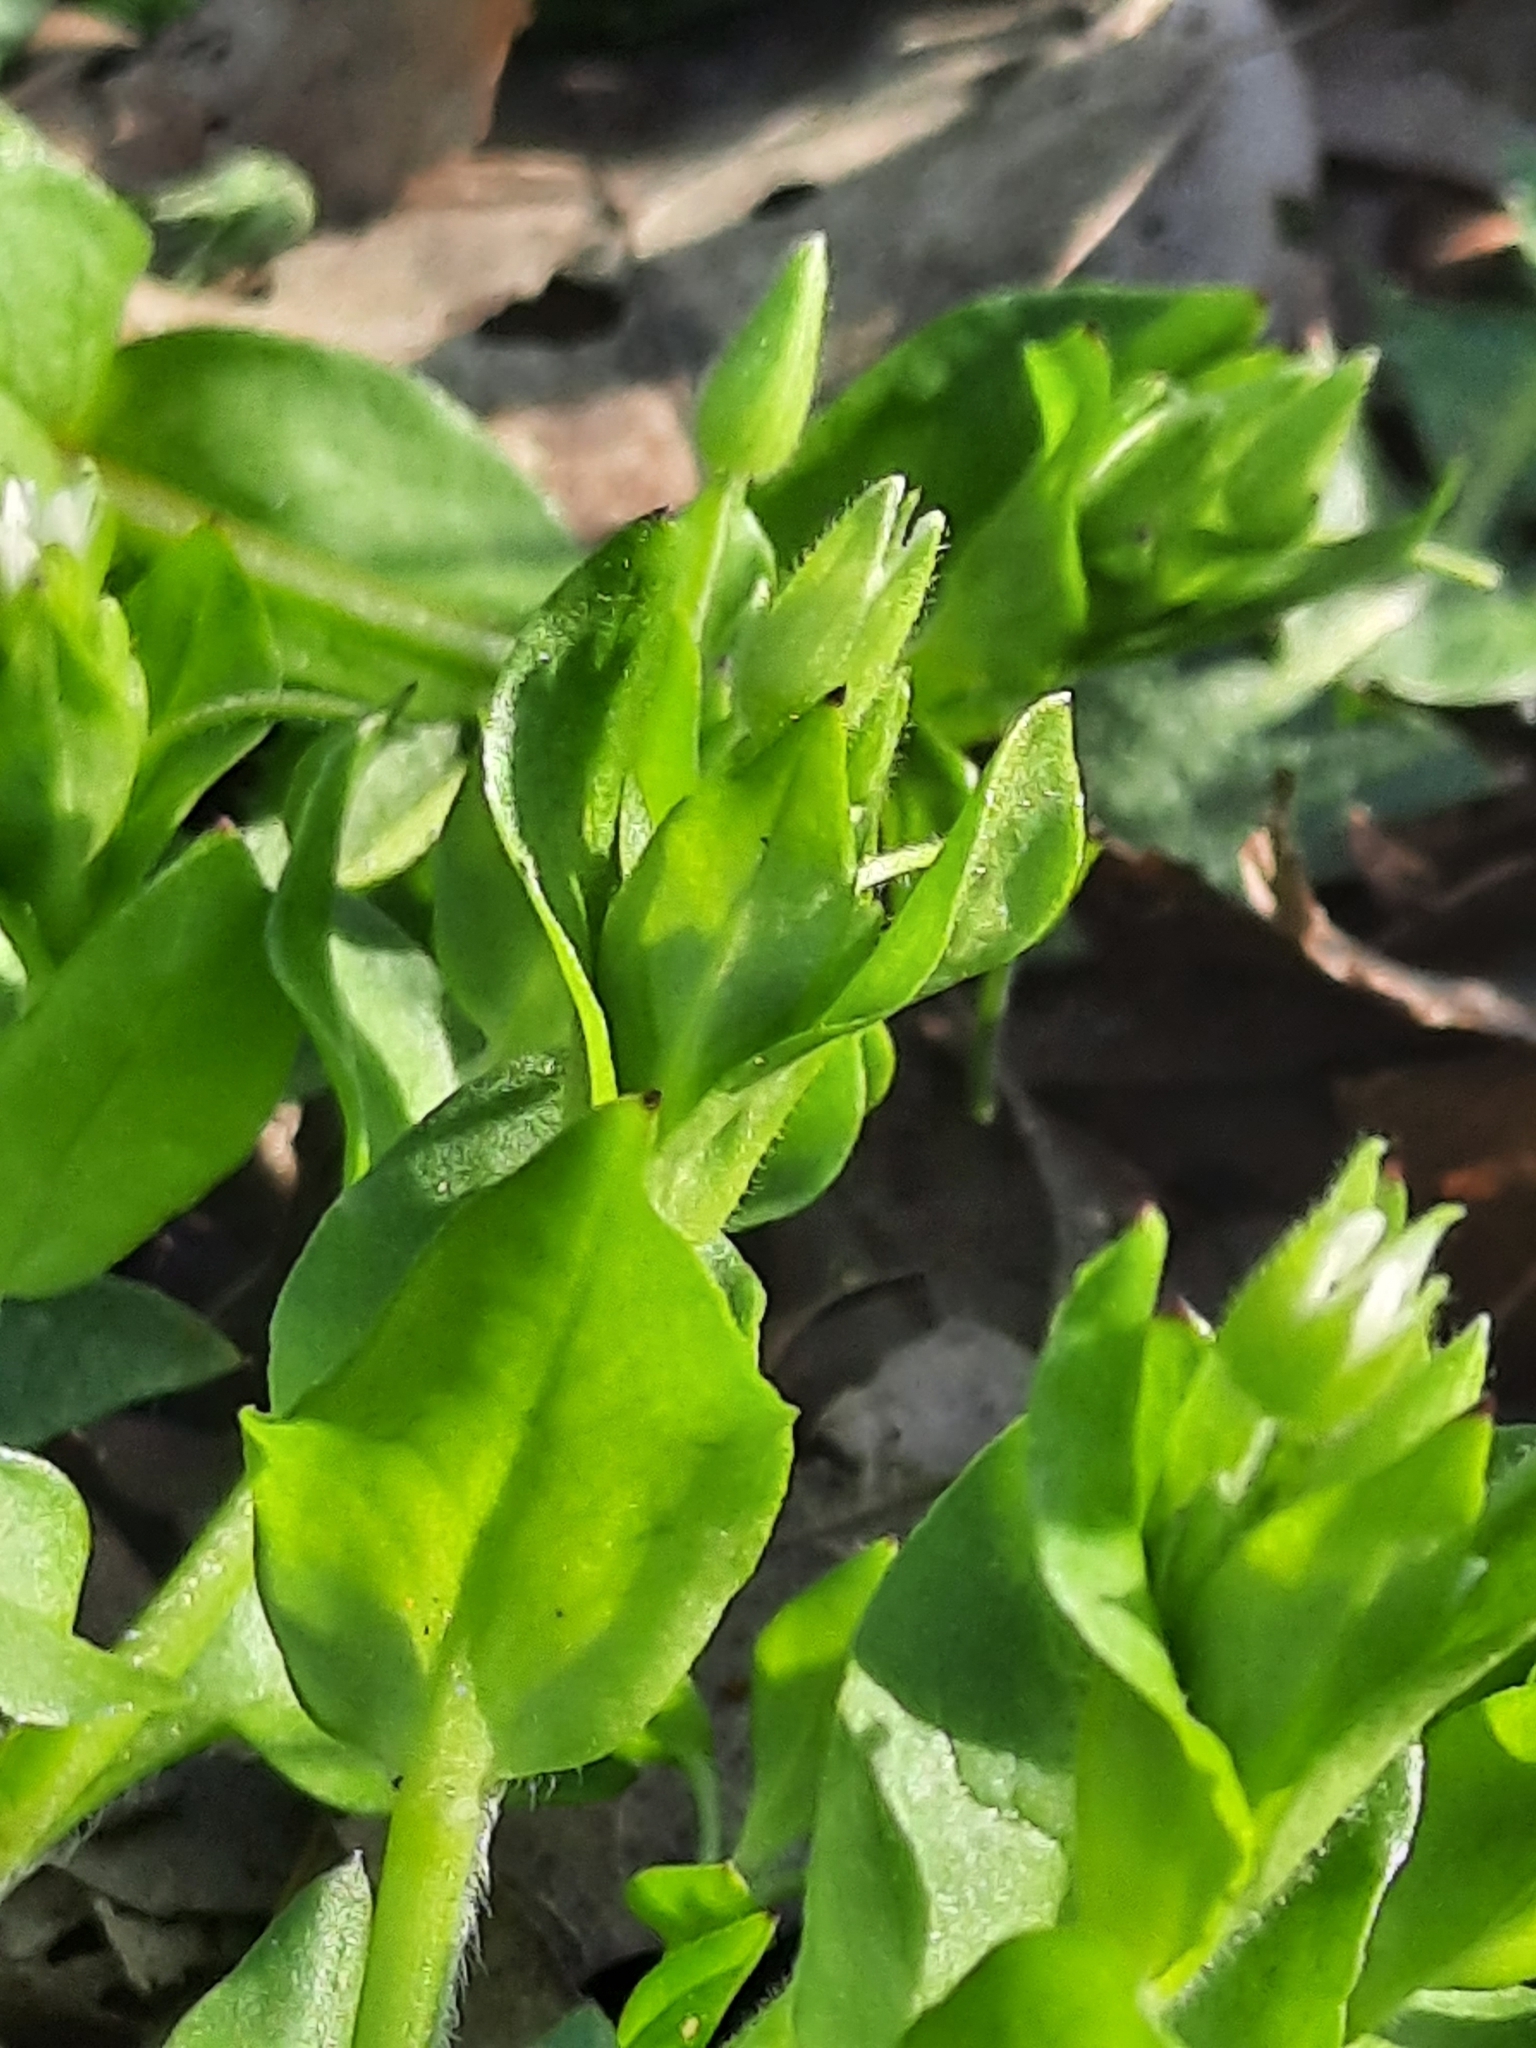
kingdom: Plantae
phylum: Tracheophyta
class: Magnoliopsida
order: Caryophyllales
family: Caryophyllaceae
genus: Stellaria
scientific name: Stellaria media
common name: Common chickweed
